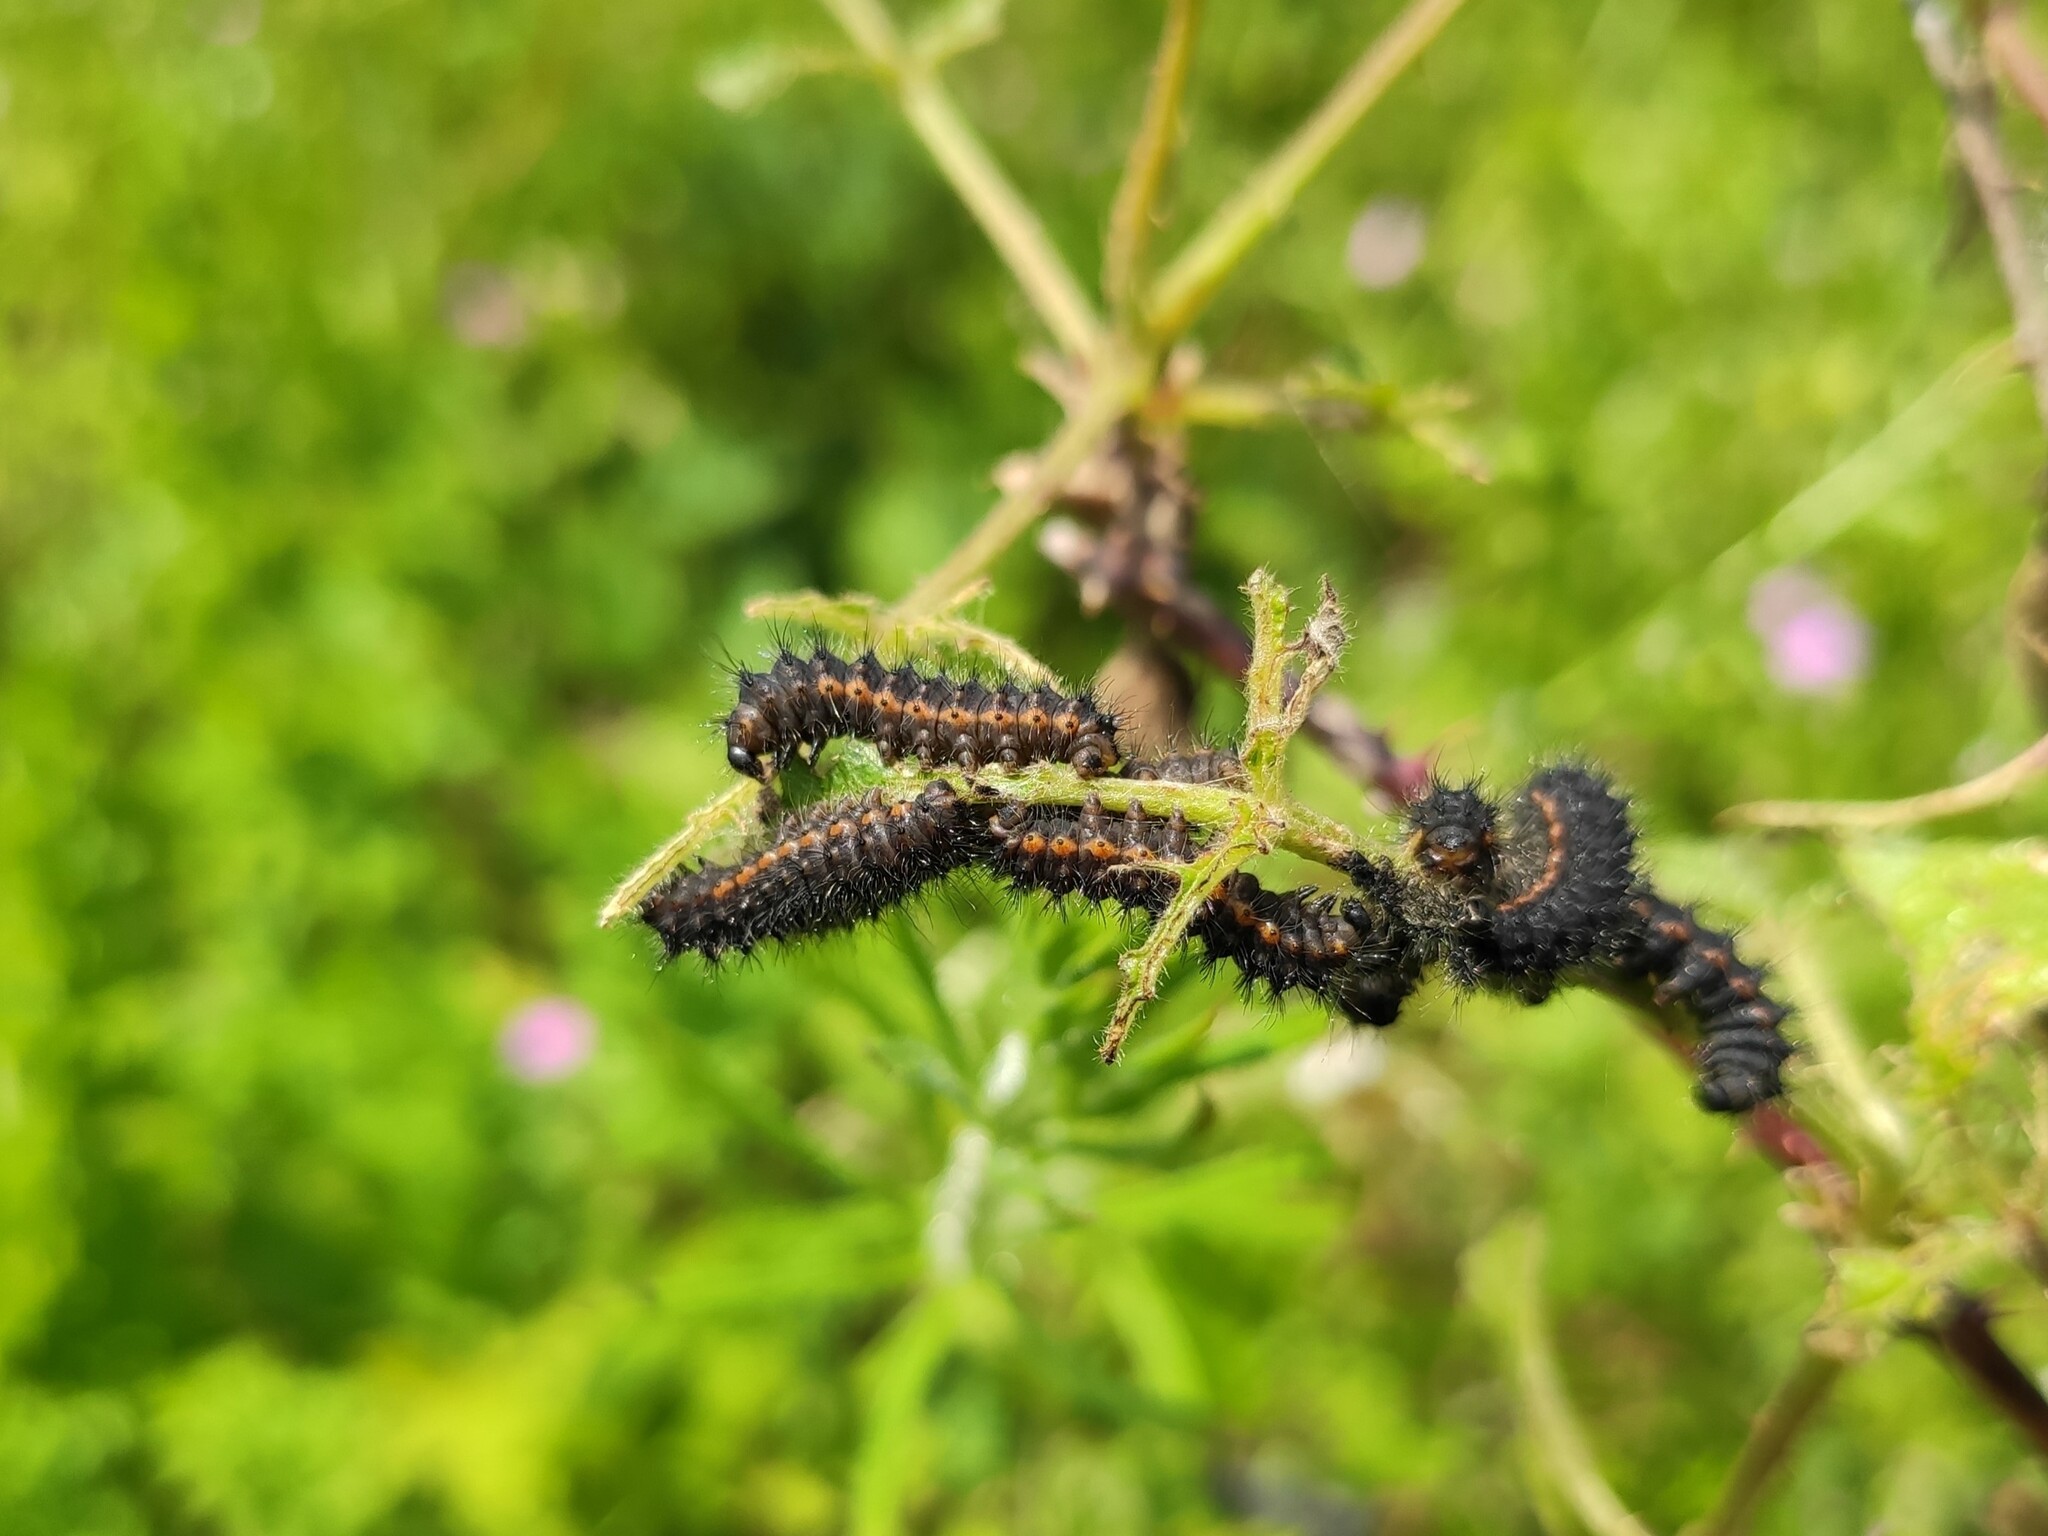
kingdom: Animalia
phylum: Arthropoda
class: Insecta
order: Lepidoptera
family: Saturniidae
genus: Saturnia
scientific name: Saturnia pavonia
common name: Emperor moth
